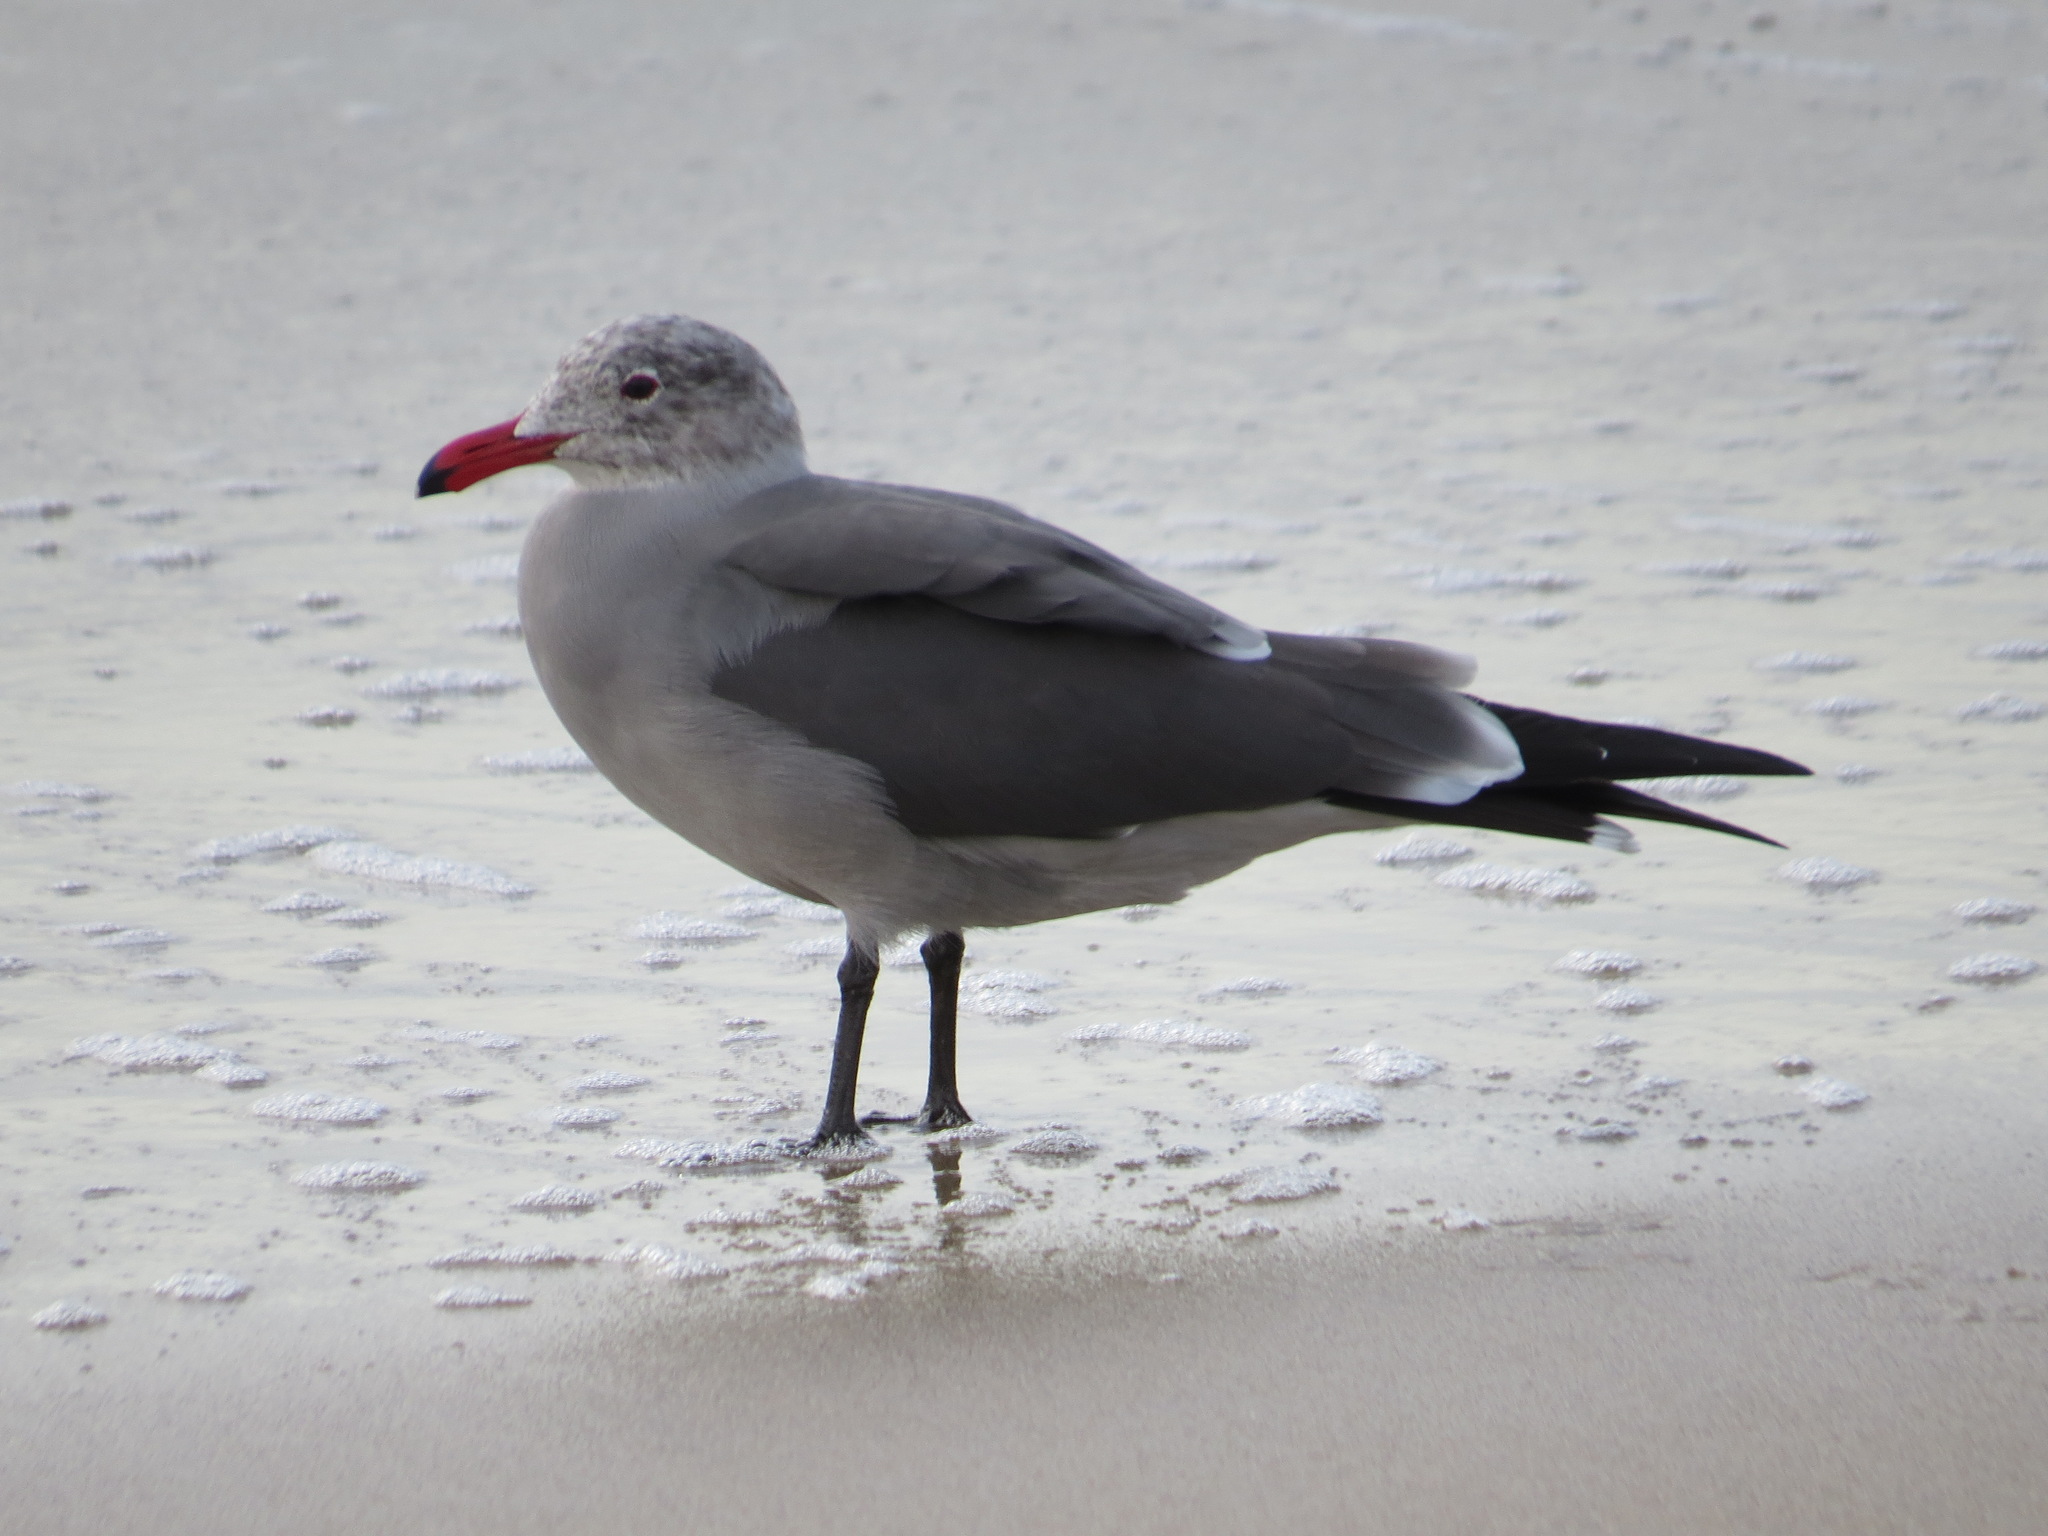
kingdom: Animalia
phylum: Chordata
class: Aves
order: Charadriiformes
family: Laridae
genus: Larus
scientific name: Larus heermanni
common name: Heermann's gull
